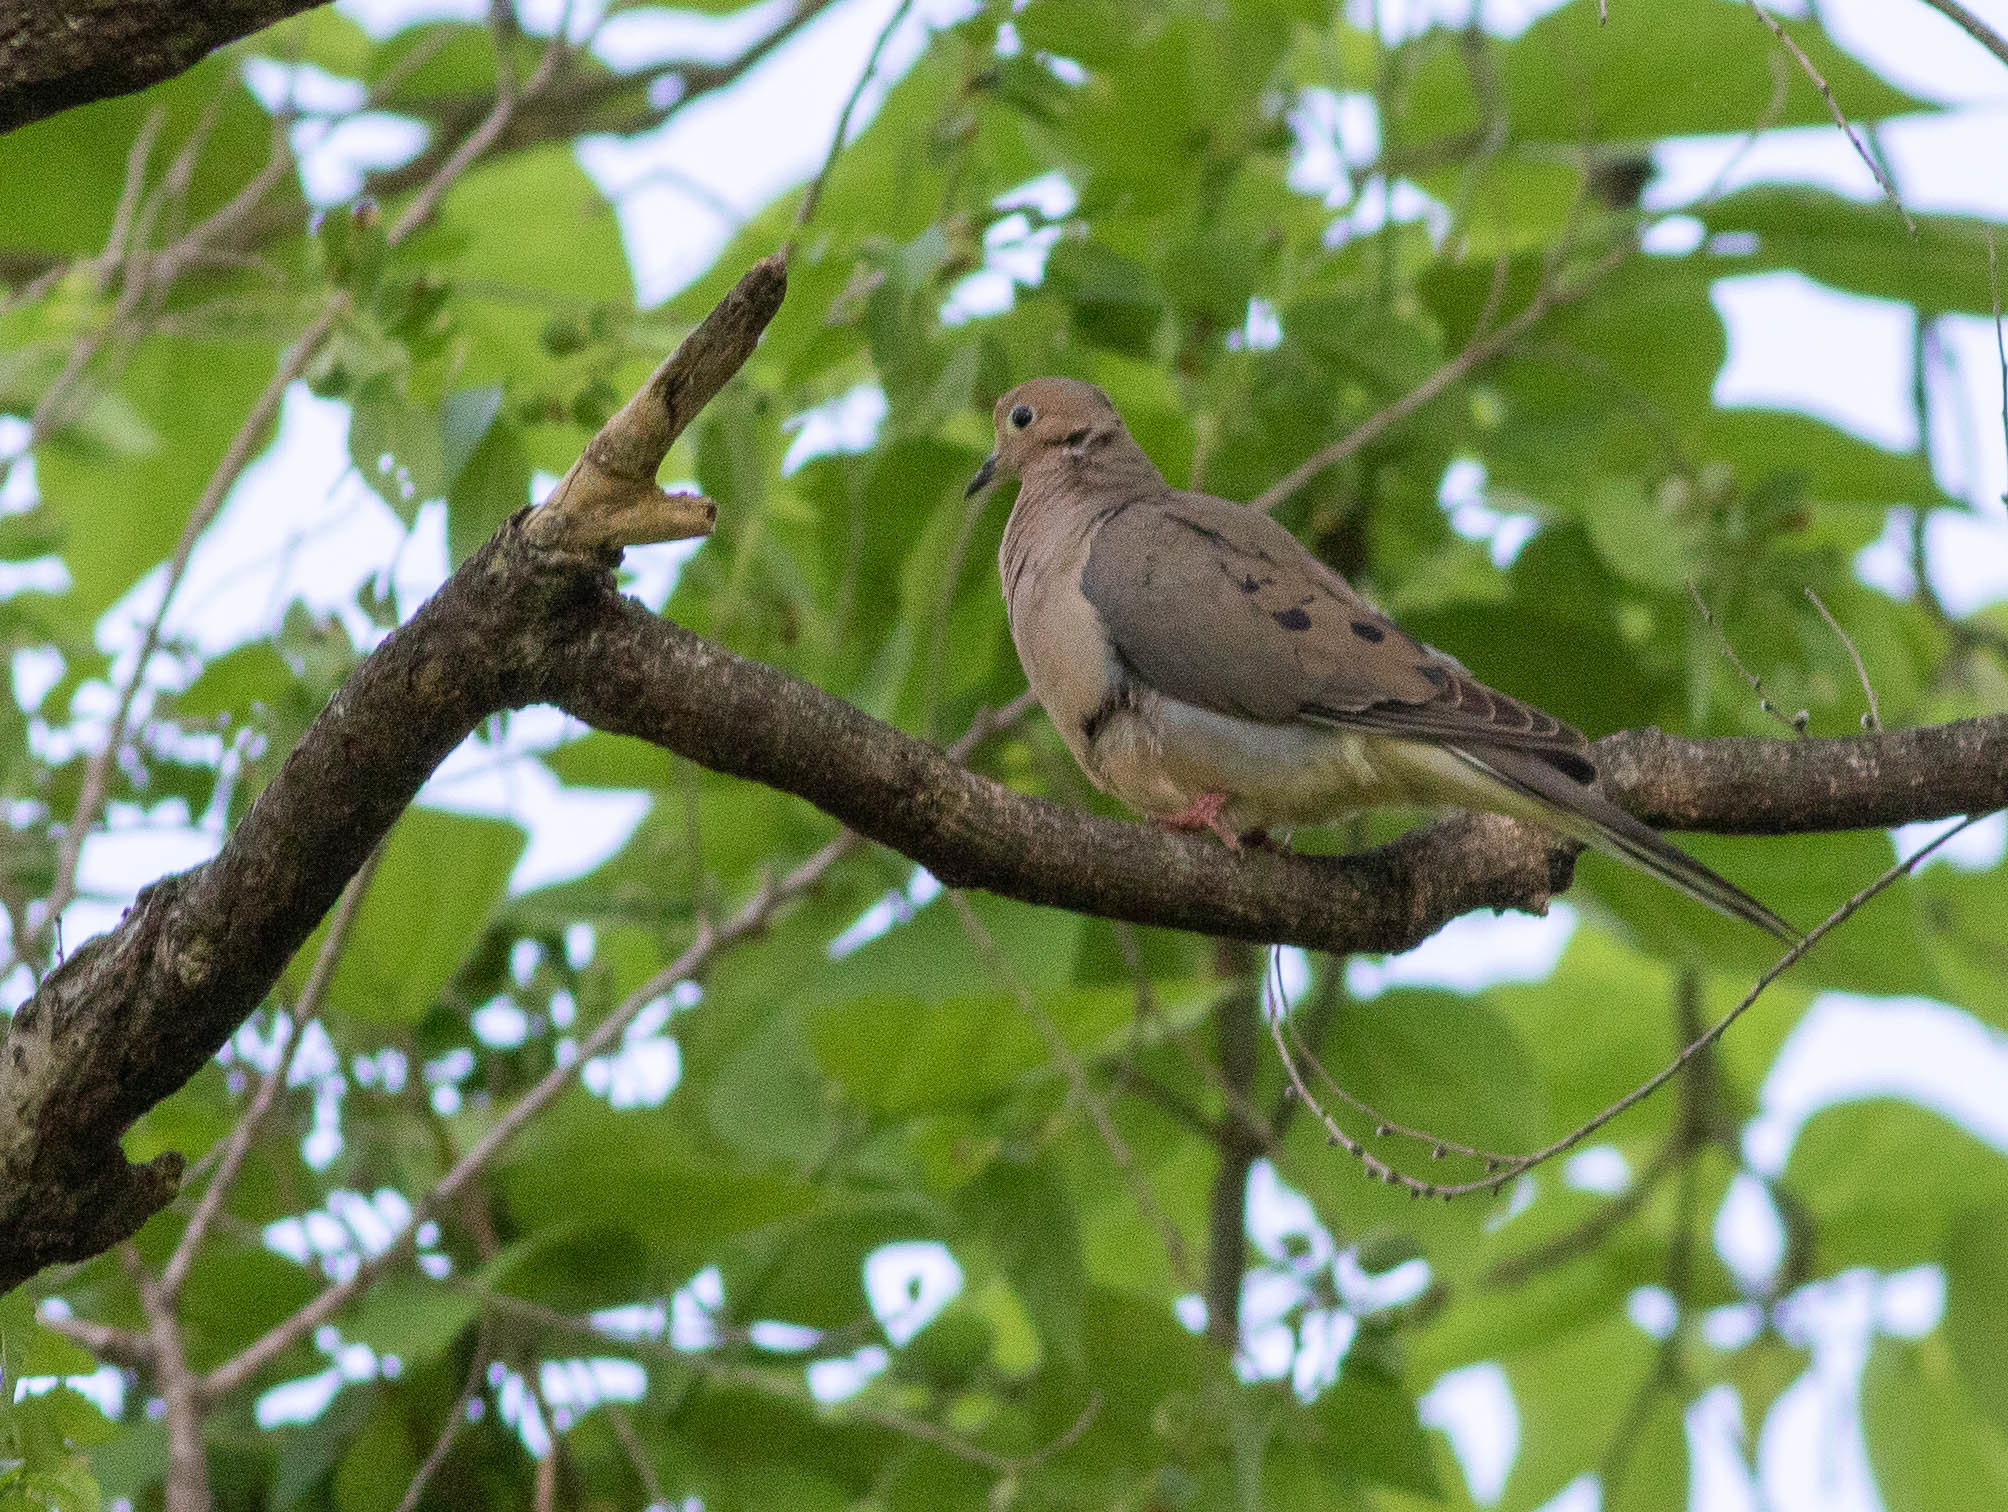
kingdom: Animalia
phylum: Chordata
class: Aves
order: Columbiformes
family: Columbidae
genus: Zenaida
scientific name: Zenaida macroura
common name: Mourning dove
